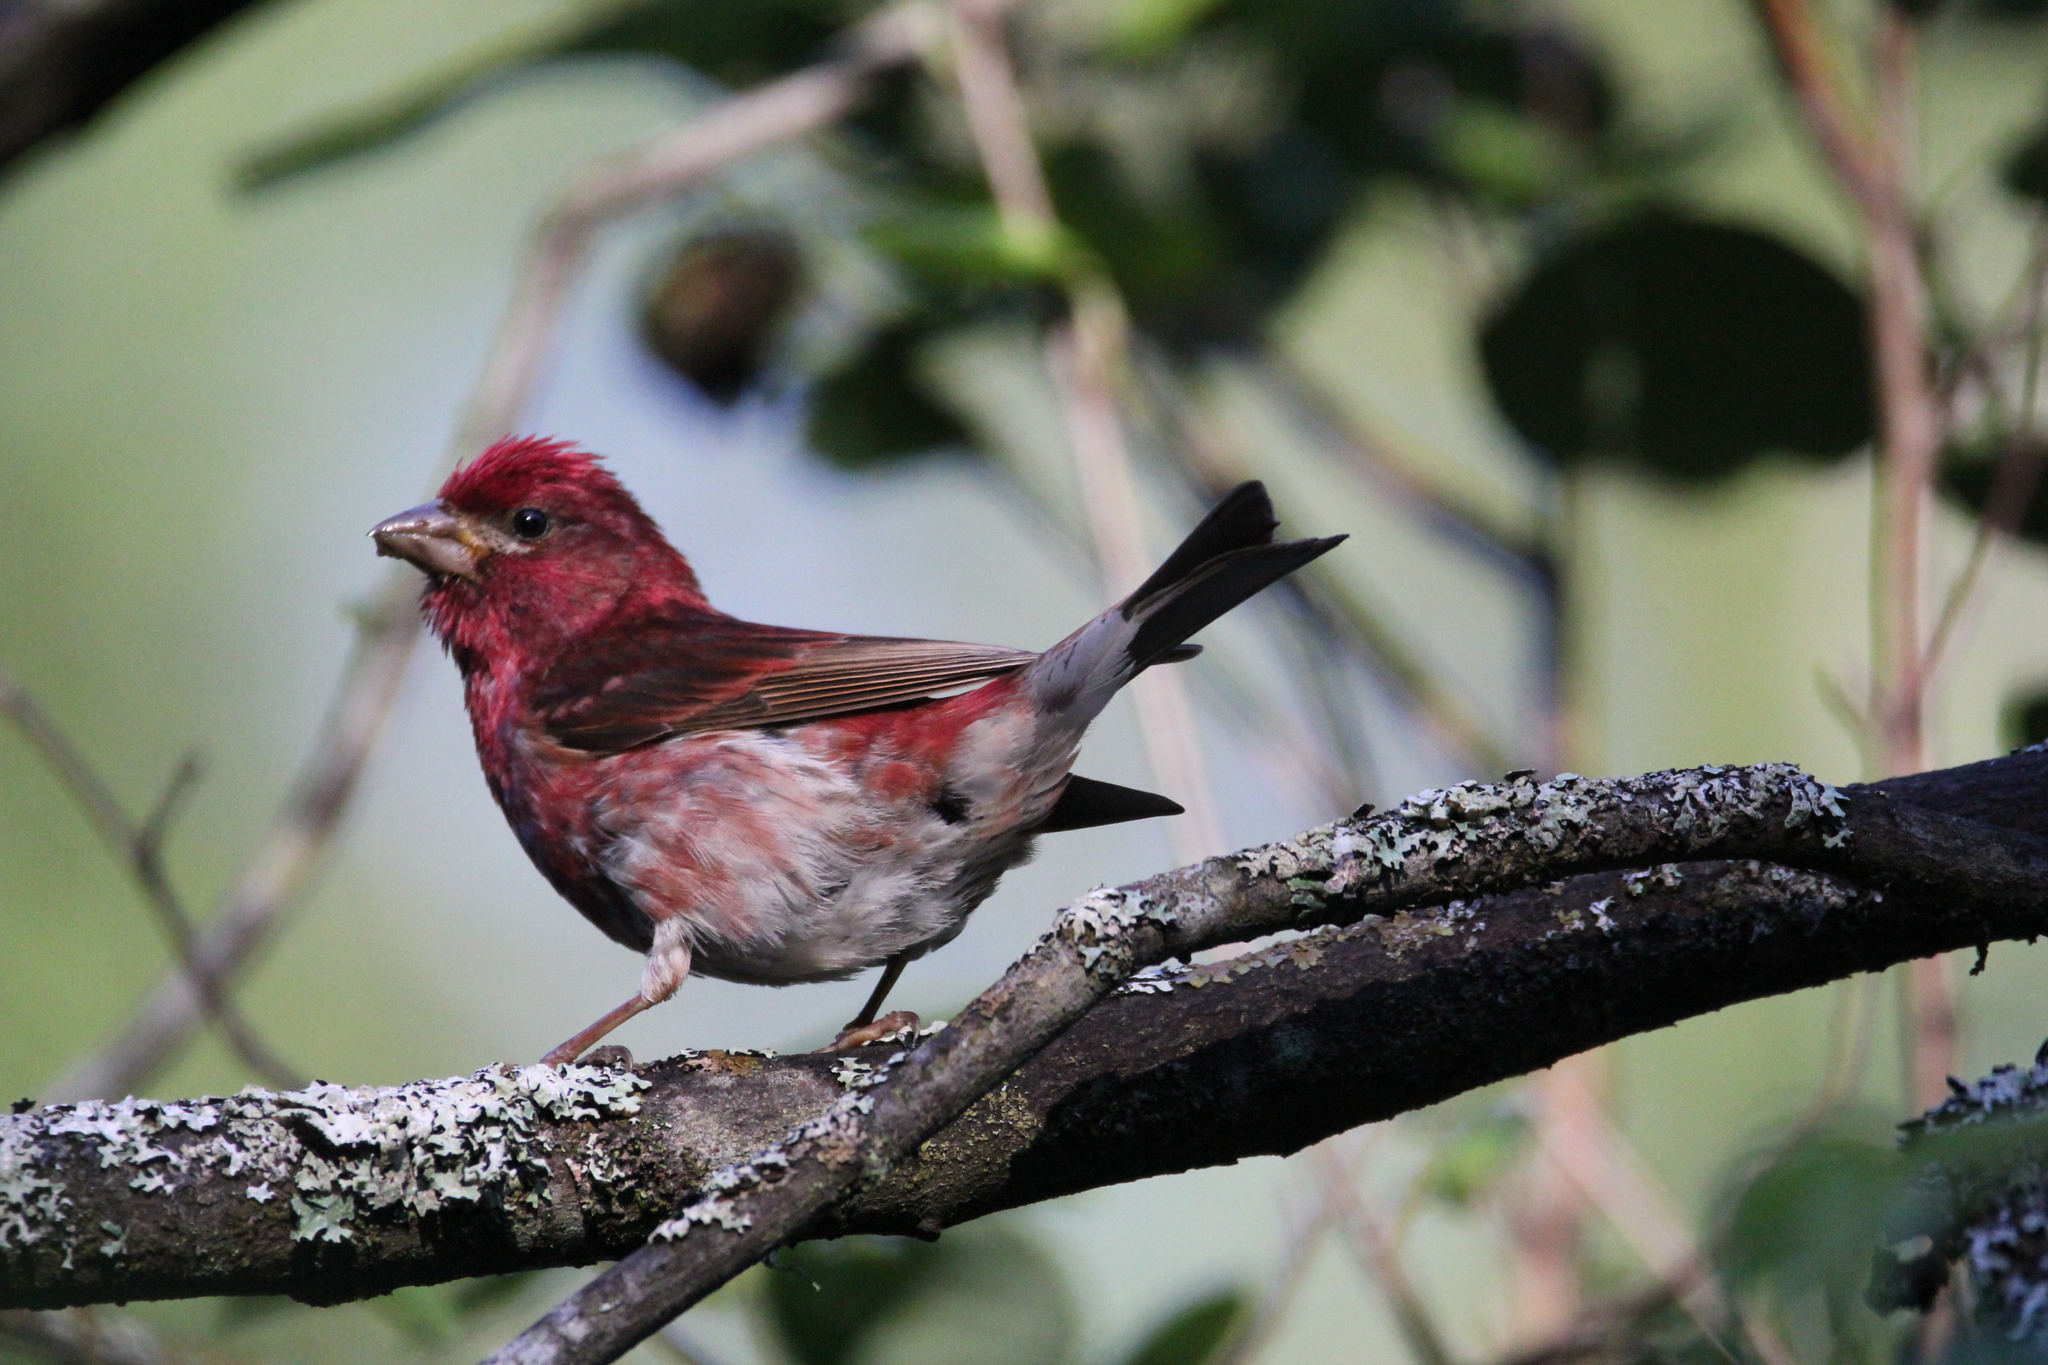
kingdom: Animalia
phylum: Chordata
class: Aves
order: Passeriformes
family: Fringillidae
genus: Haemorhous
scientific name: Haemorhous purpureus
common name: Purple finch
